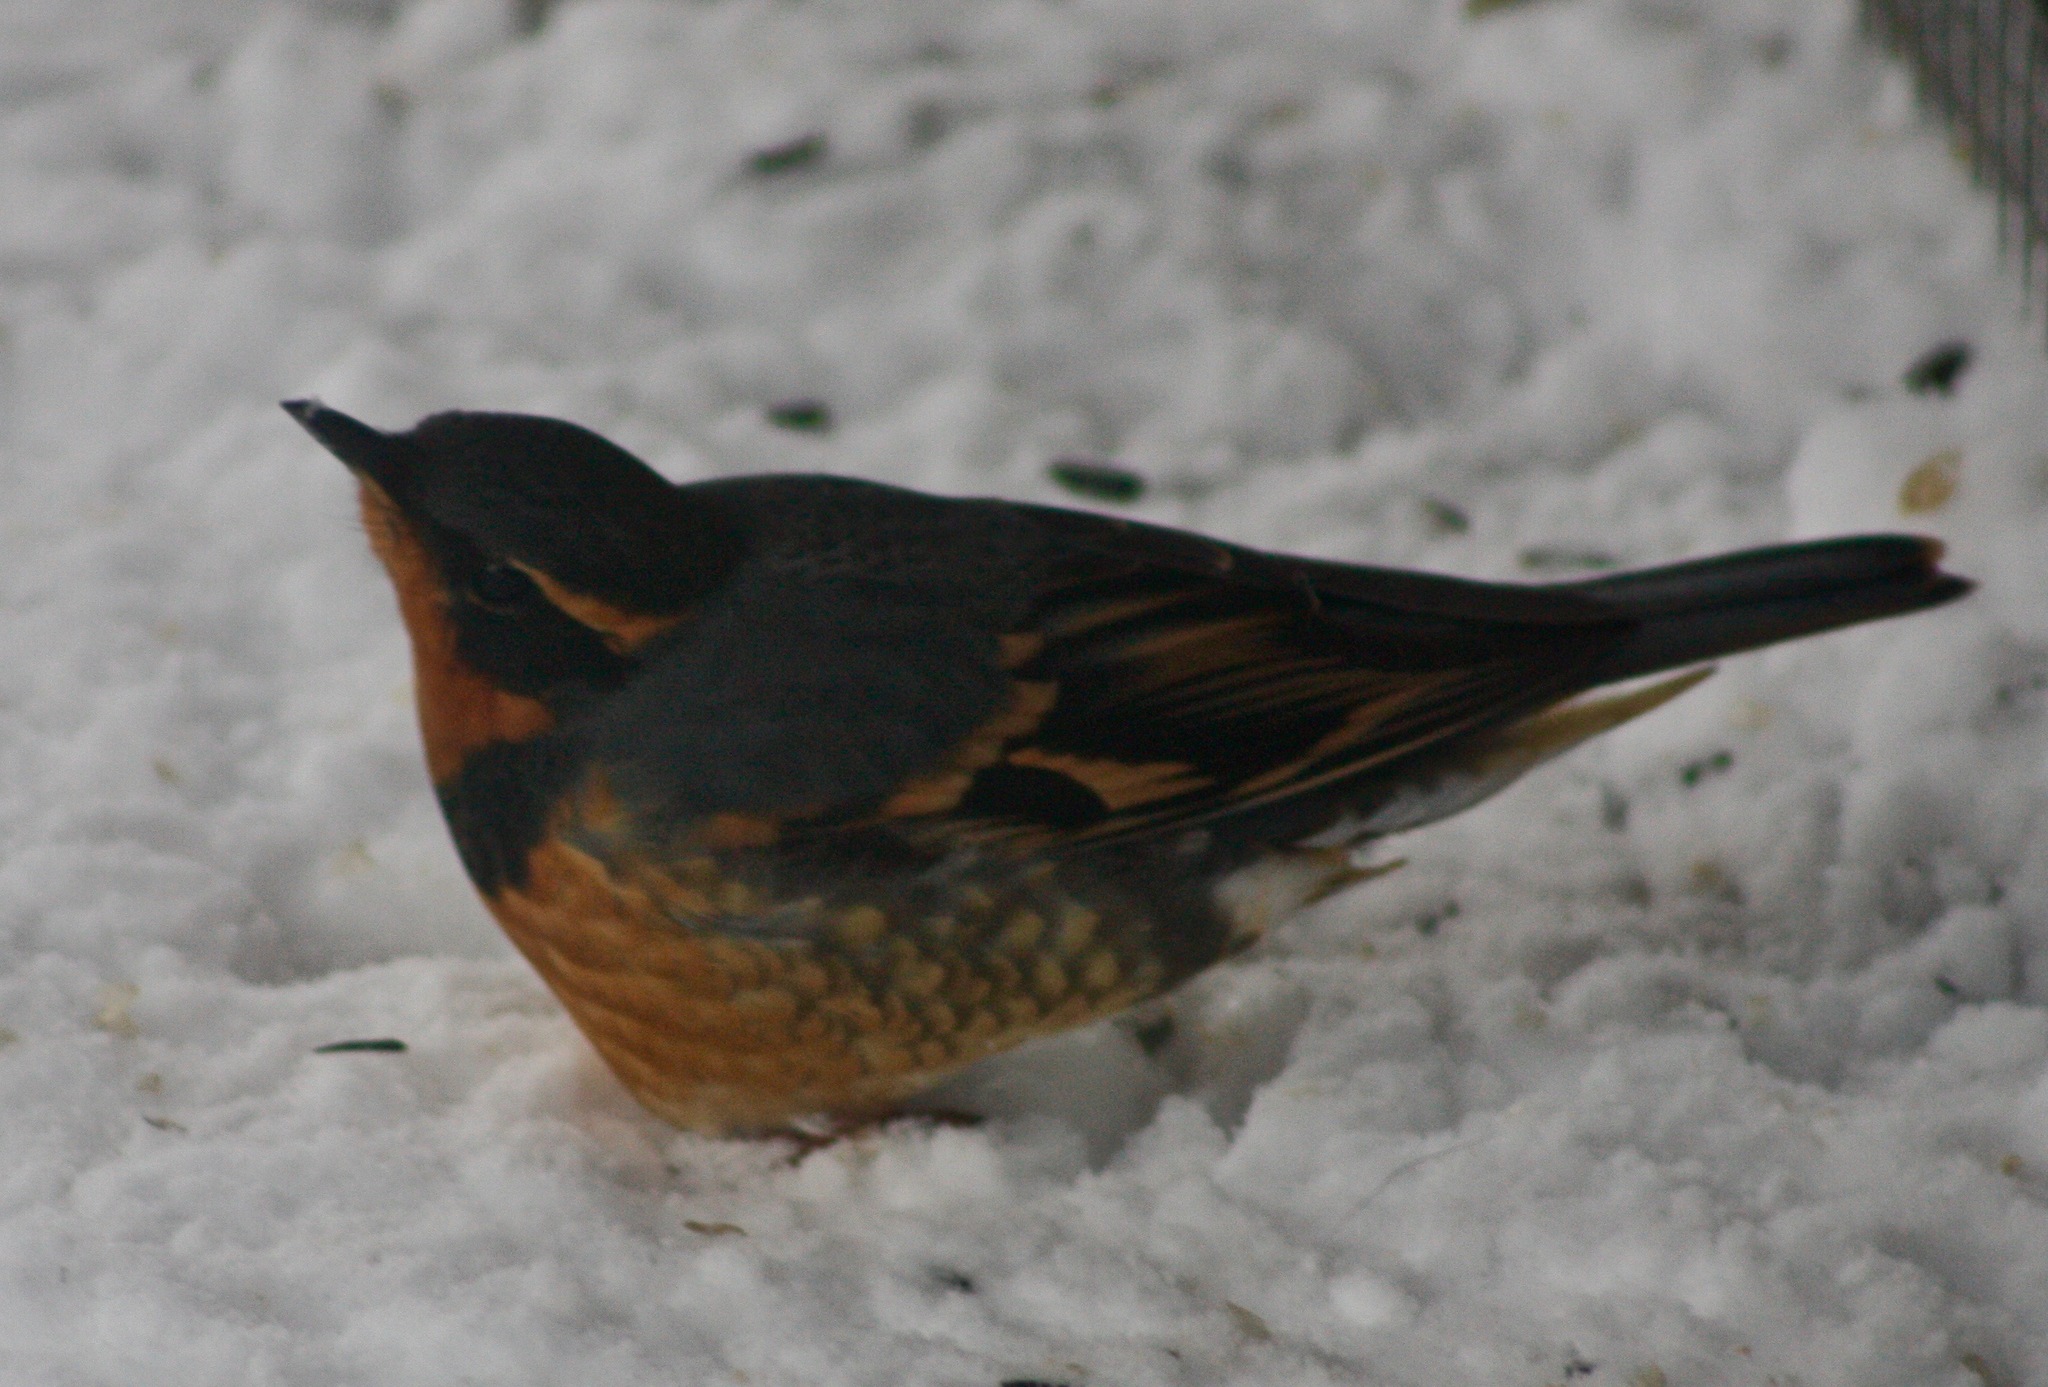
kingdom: Animalia
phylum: Chordata
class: Aves
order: Passeriformes
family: Turdidae
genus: Ixoreus
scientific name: Ixoreus naevius
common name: Varied thrush
